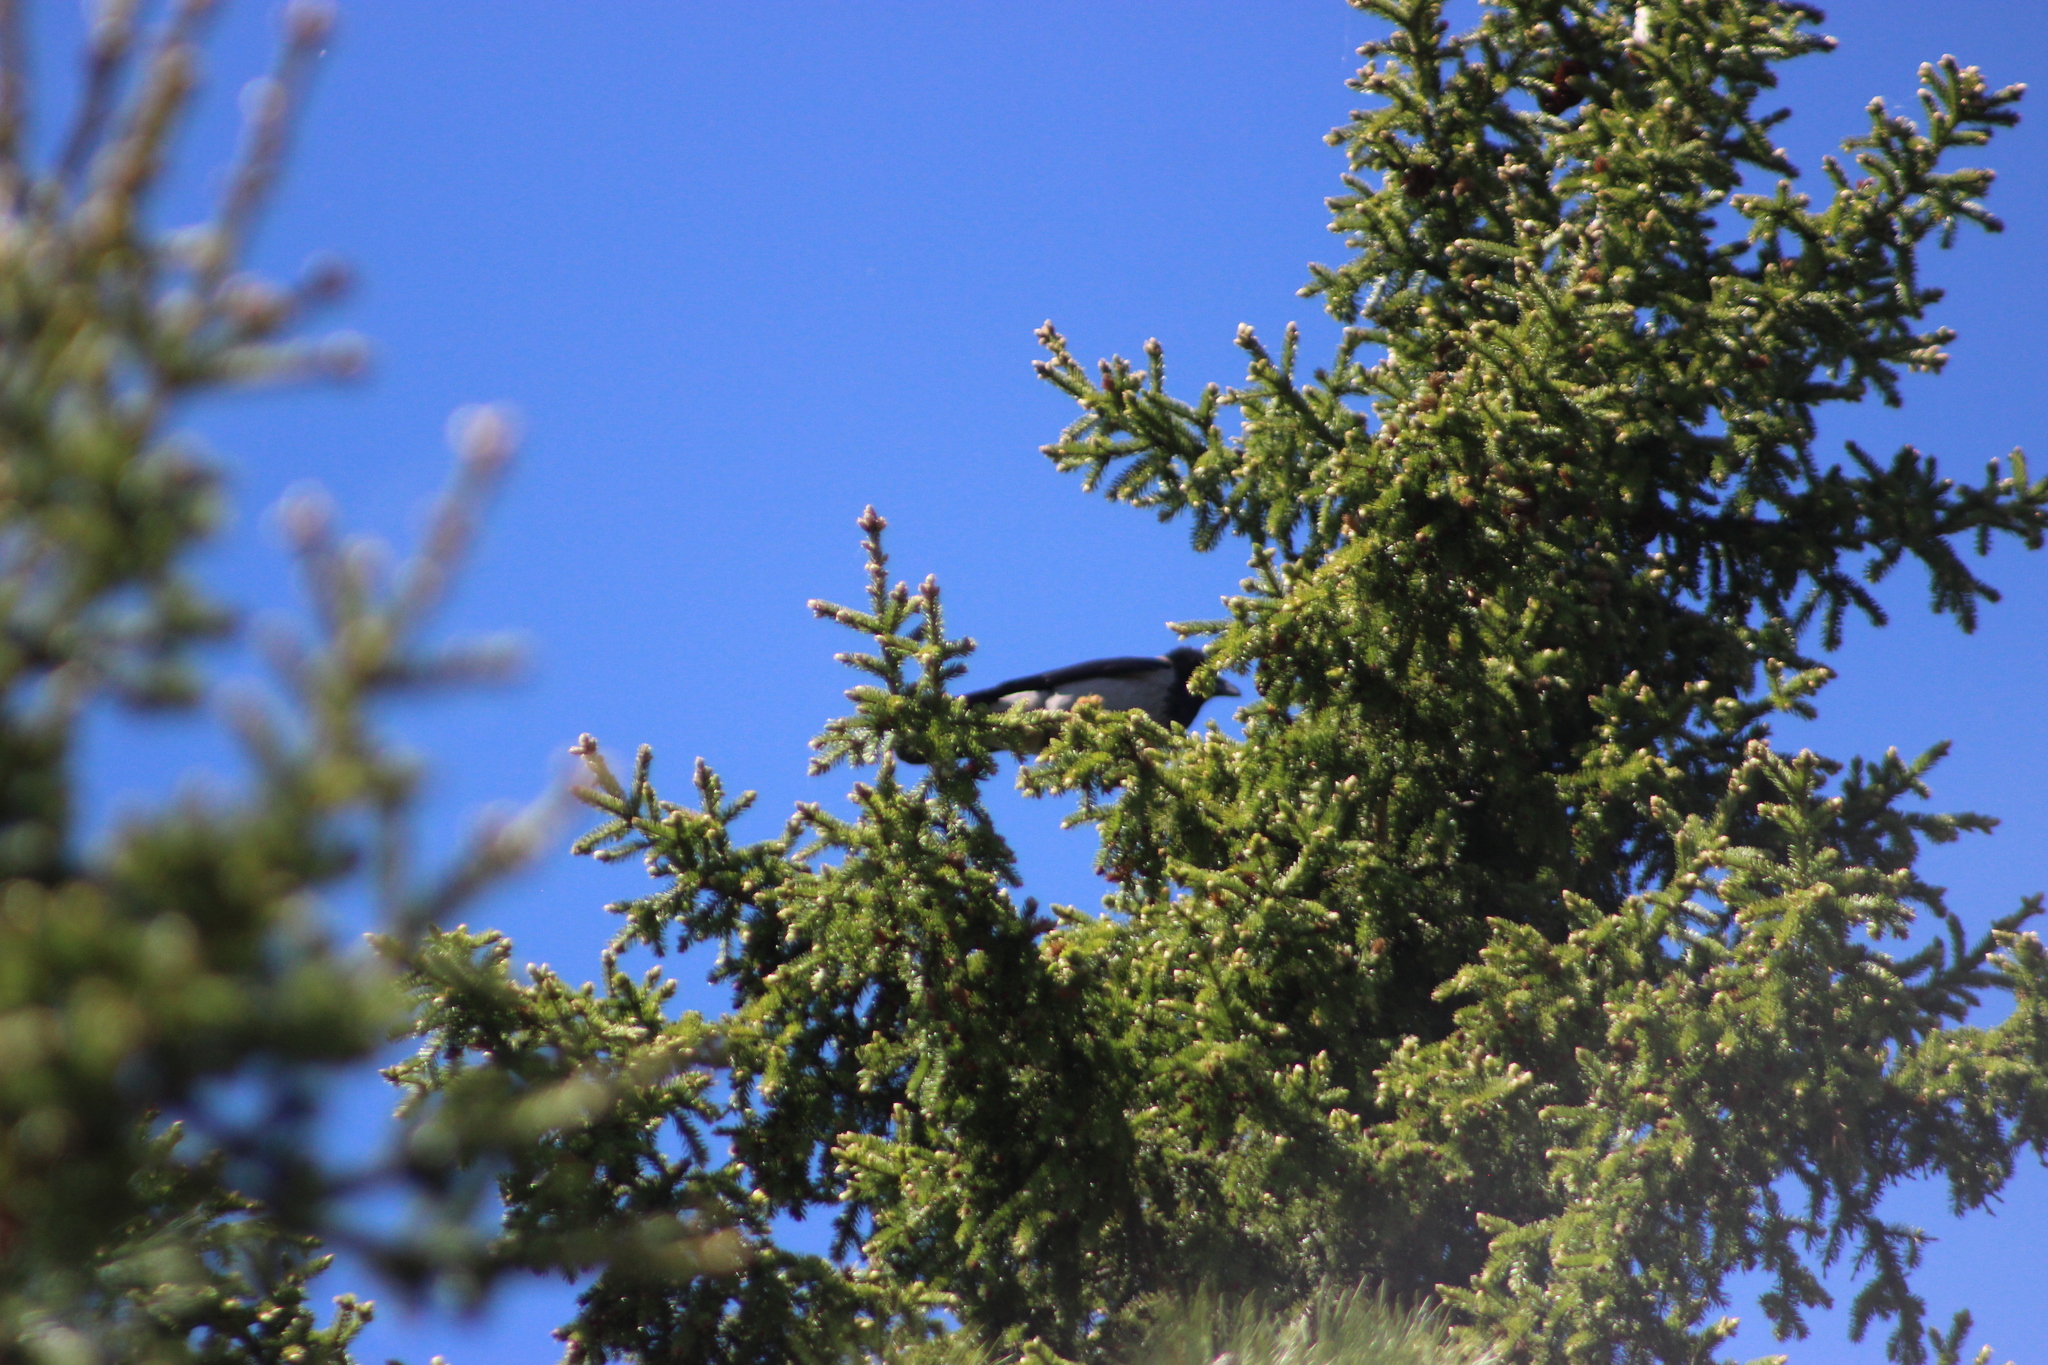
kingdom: Animalia
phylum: Chordata
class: Aves
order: Passeriformes
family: Corvidae
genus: Corvus
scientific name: Corvus cornix
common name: Hooded crow
